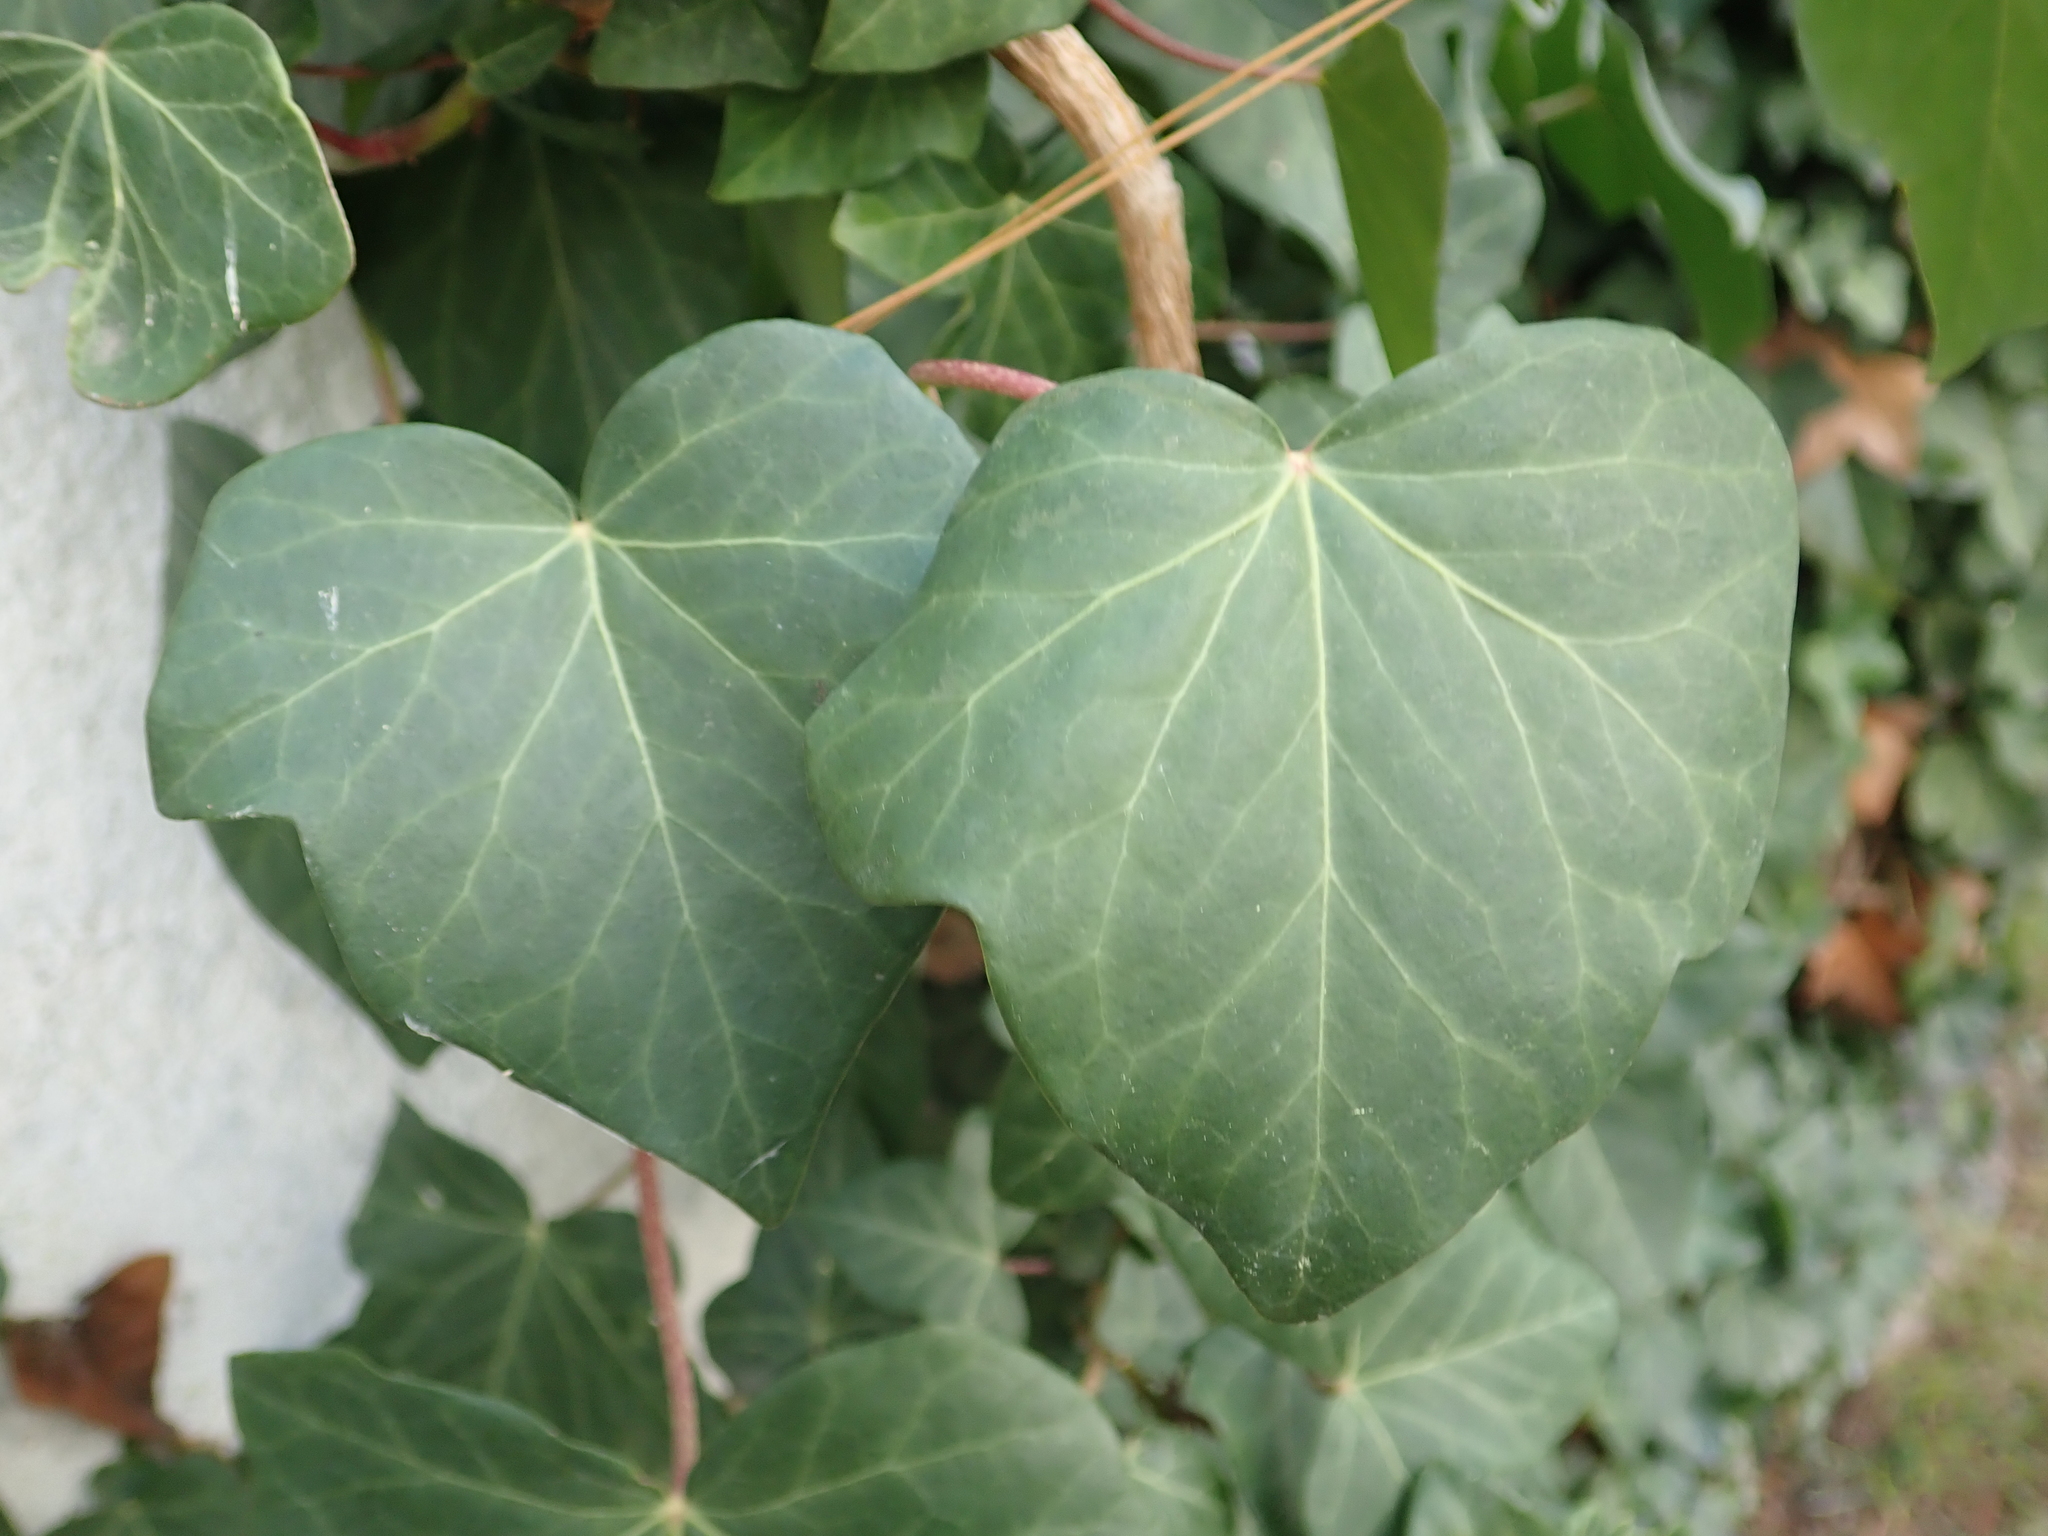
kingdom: Plantae
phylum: Tracheophyta
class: Magnoliopsida
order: Apiales
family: Araliaceae
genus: Hedera
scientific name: Hedera helix
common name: Ivy
